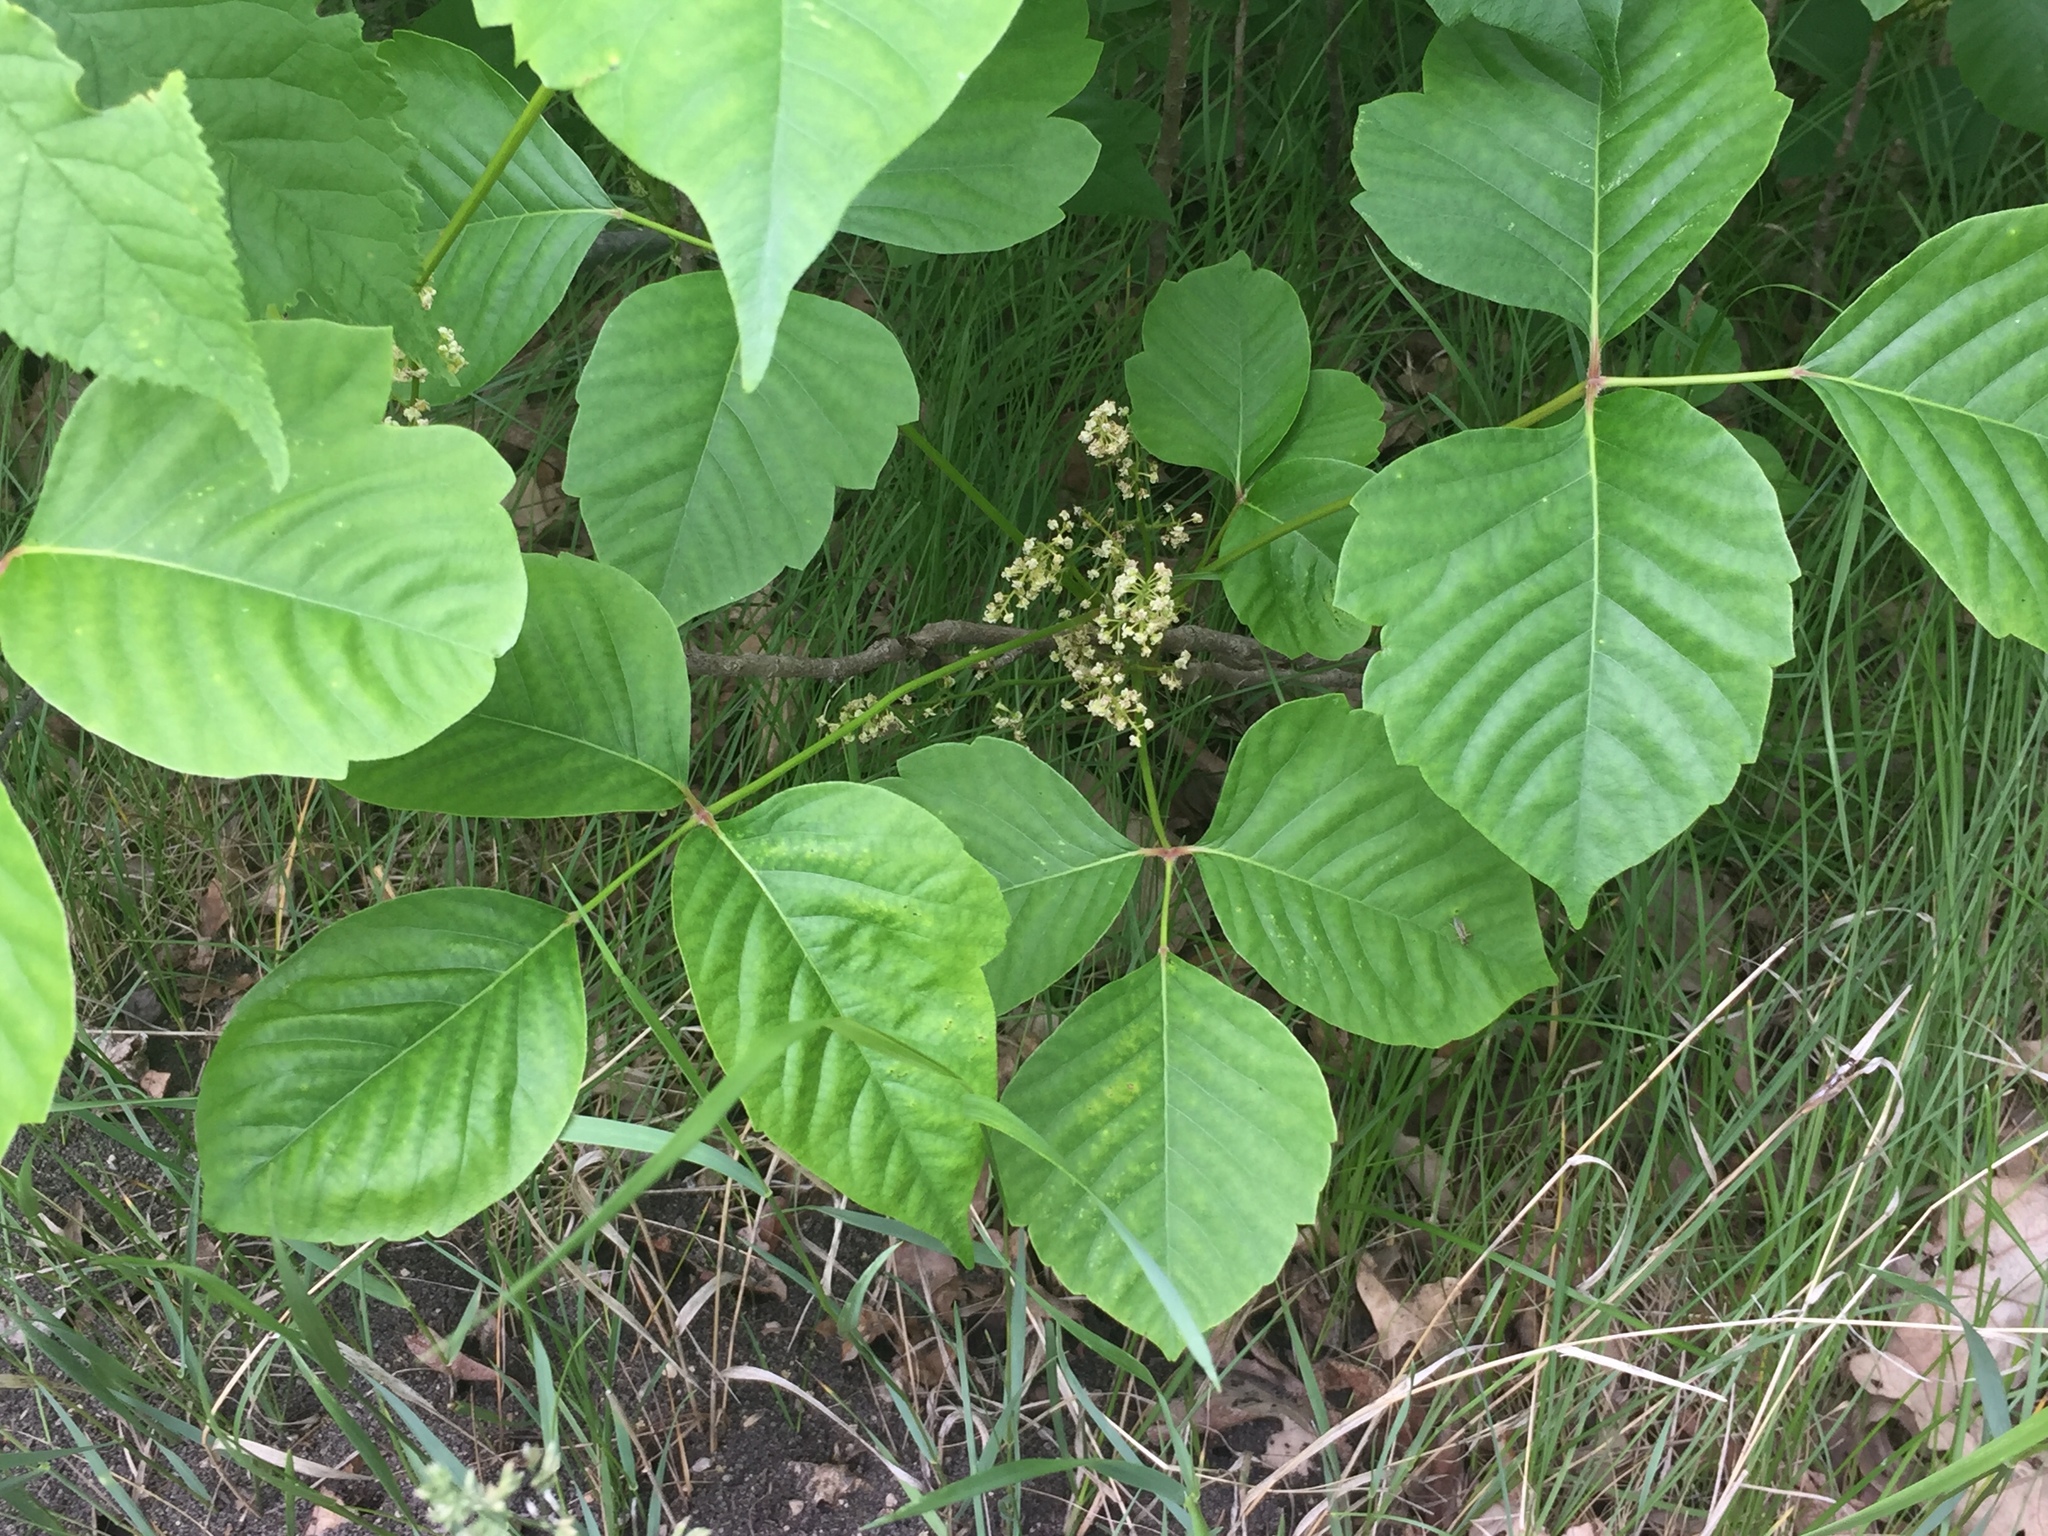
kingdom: Plantae
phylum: Tracheophyta
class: Magnoliopsida
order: Sapindales
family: Anacardiaceae
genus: Toxicodendron
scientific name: Toxicodendron rydbergii
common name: Rydberg's poison-ivy
